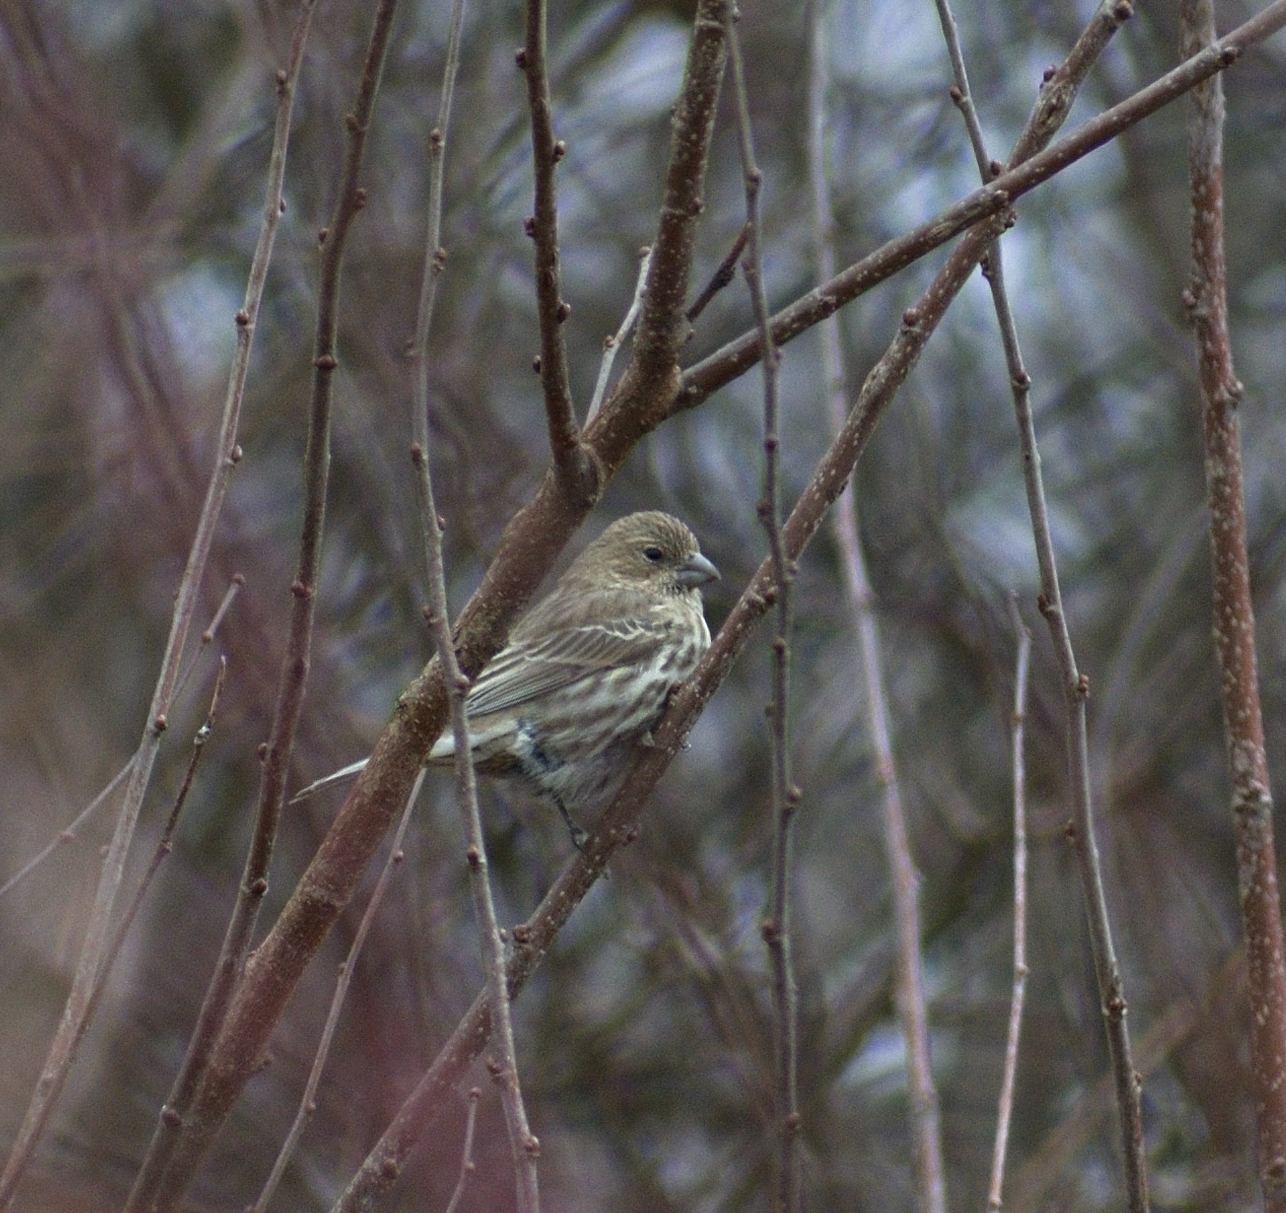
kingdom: Animalia
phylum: Chordata
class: Aves
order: Passeriformes
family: Fringillidae
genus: Haemorhous
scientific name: Haemorhous mexicanus
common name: House finch
